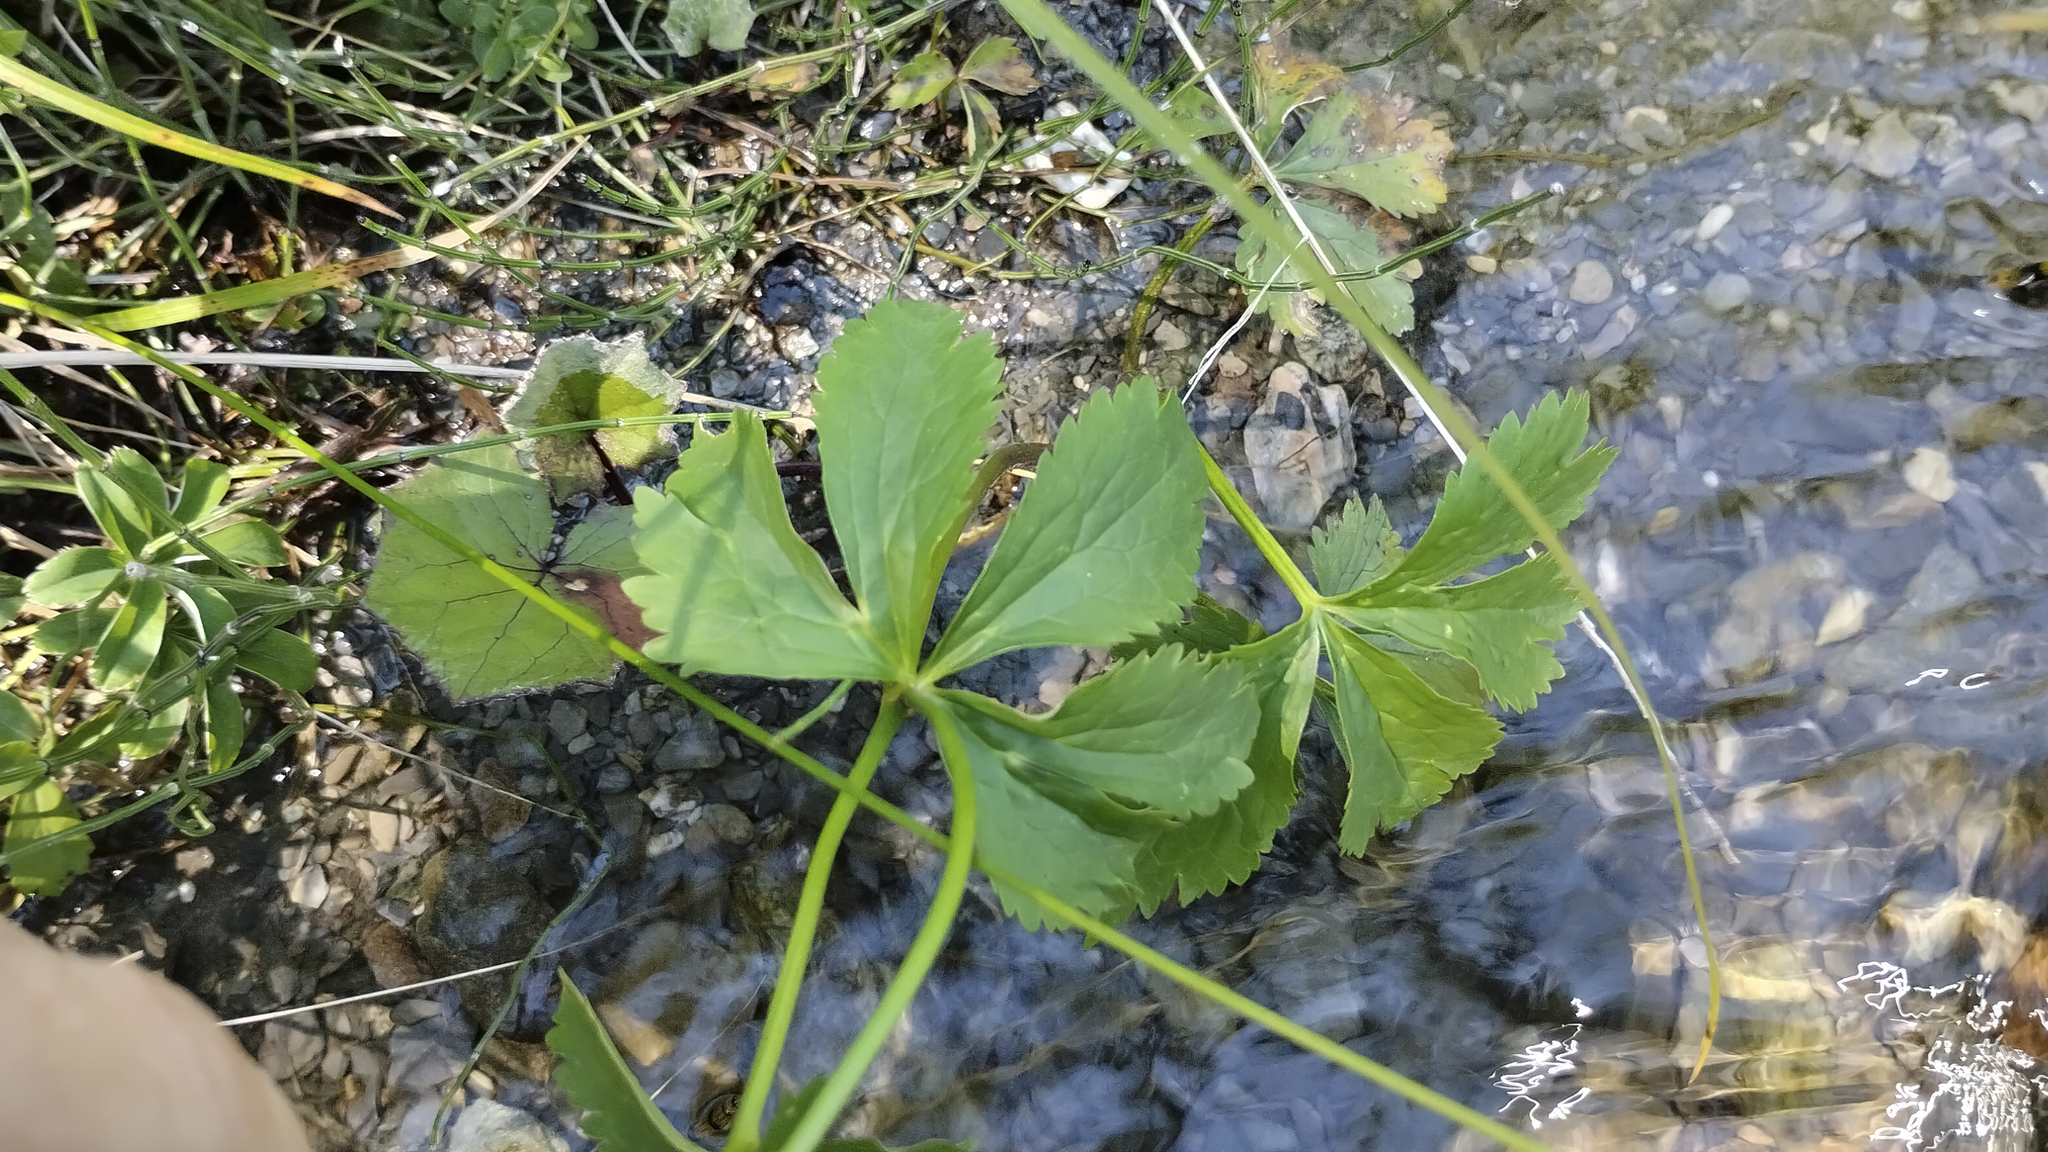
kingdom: Plantae
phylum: Tracheophyta
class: Magnoliopsida
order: Ranunculales
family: Ranunculaceae
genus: Ranunculus
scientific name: Ranunculus aconitifolius
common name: Aconite-leaved buttercup
